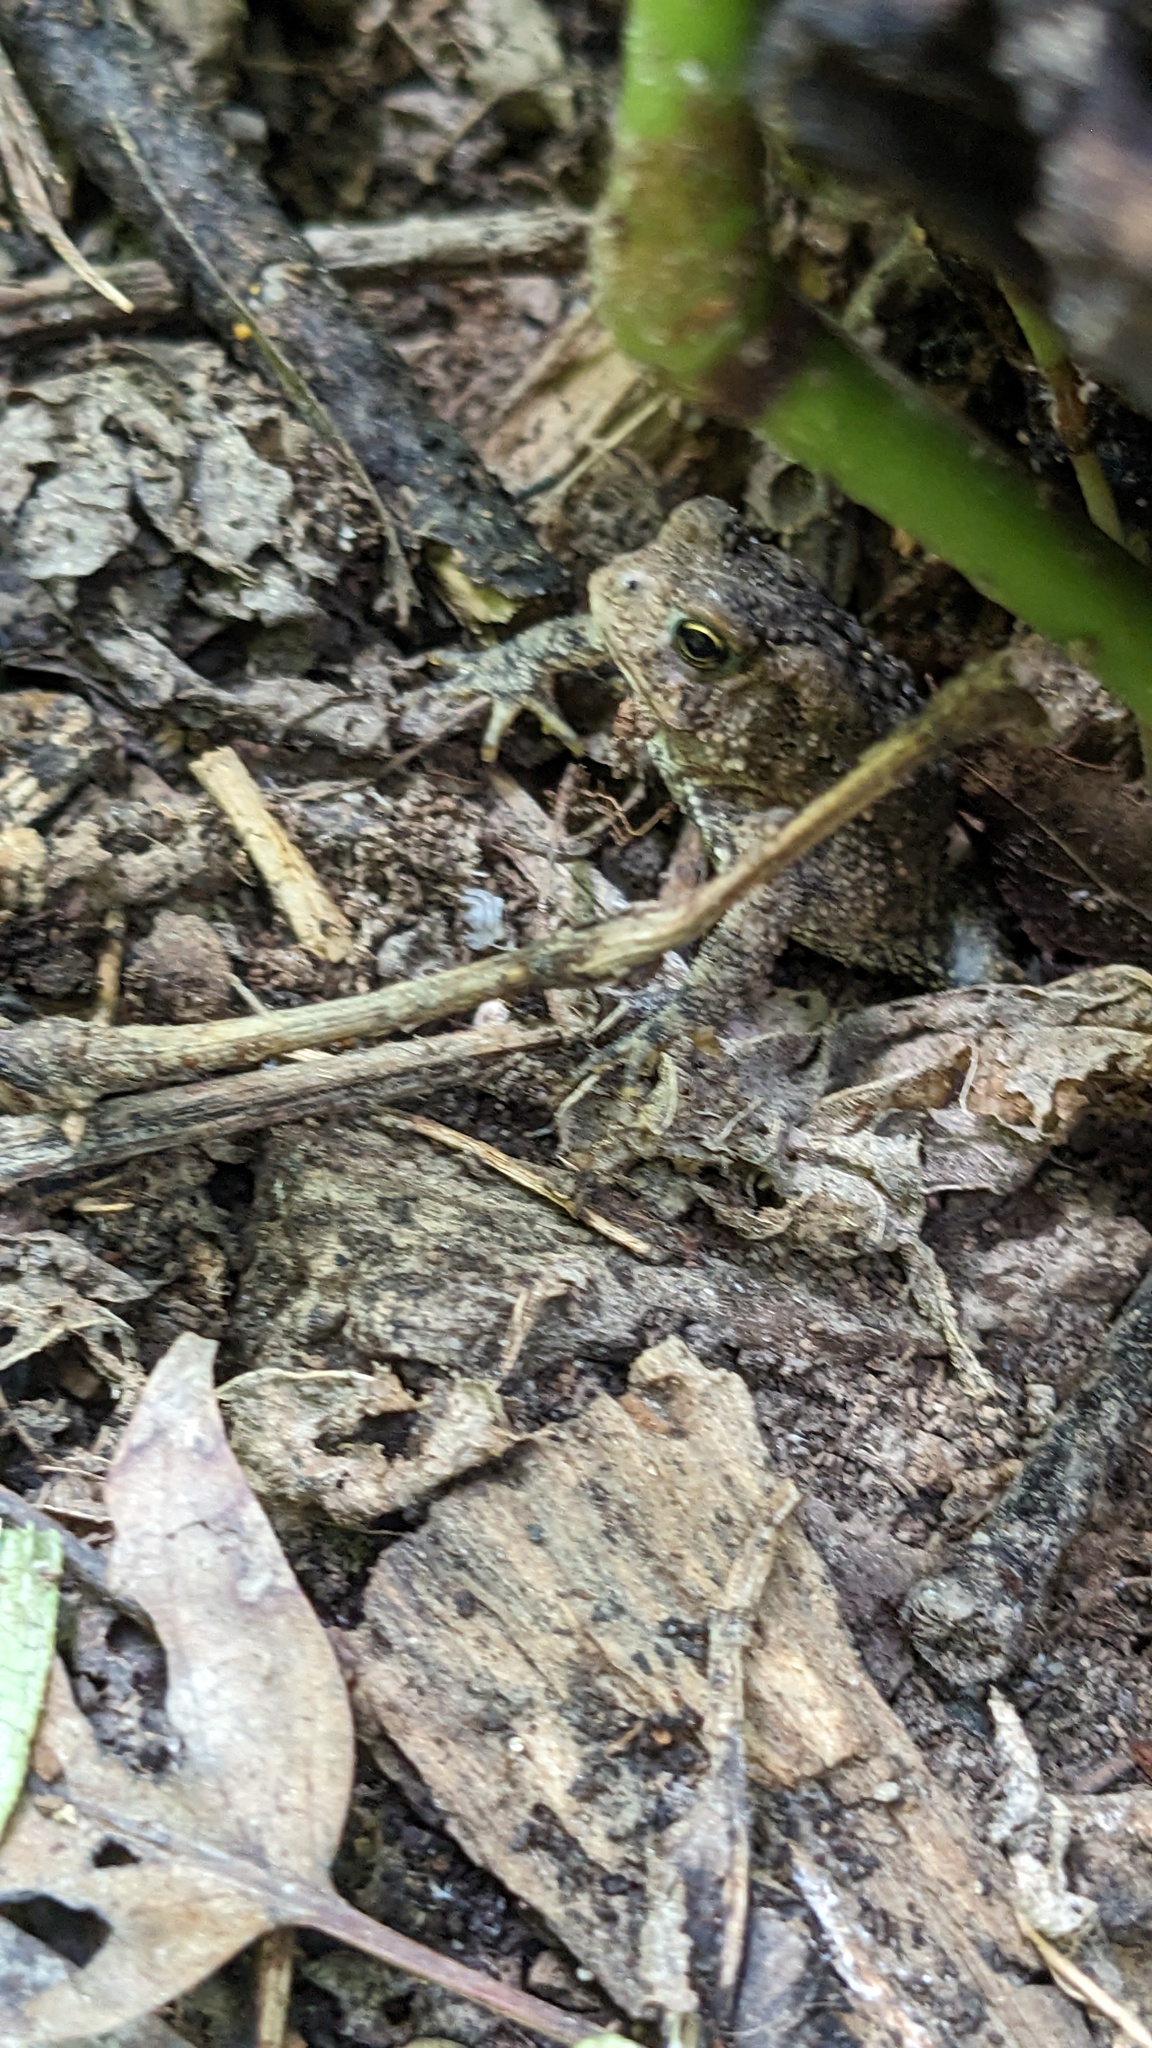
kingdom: Animalia
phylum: Chordata
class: Amphibia
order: Anura
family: Bufonidae
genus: Anaxyrus
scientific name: Anaxyrus americanus
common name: American toad
